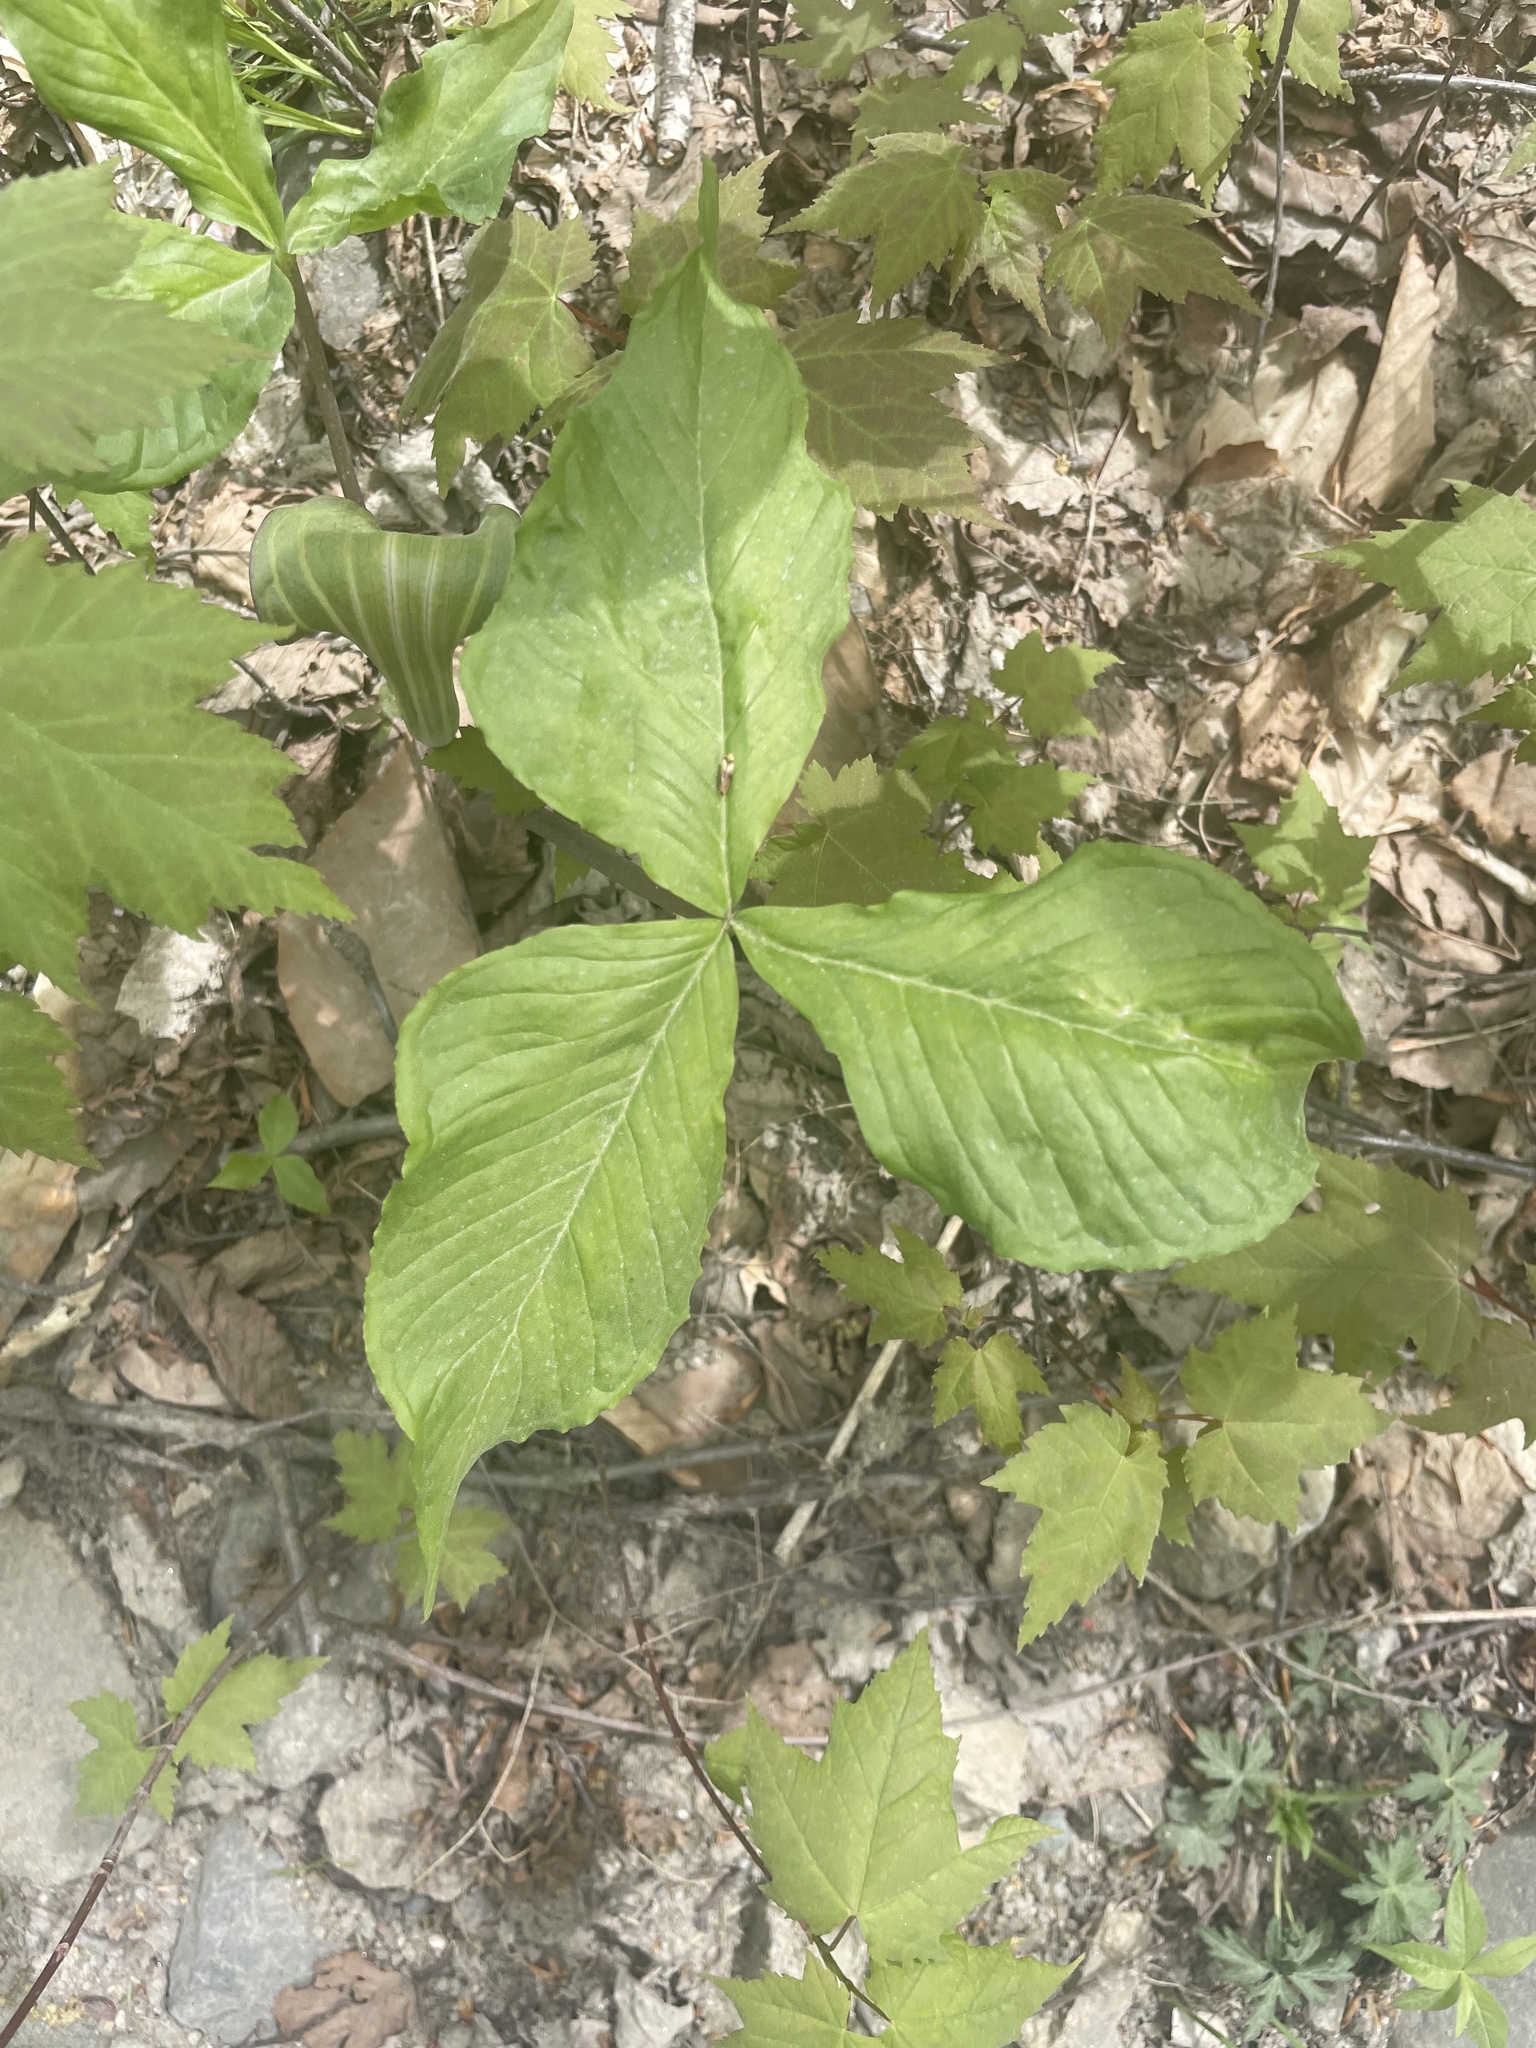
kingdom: Plantae
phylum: Tracheophyta
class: Liliopsida
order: Alismatales
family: Araceae
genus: Arisaema
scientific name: Arisaema triphyllum
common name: Jack-in-the-pulpit
